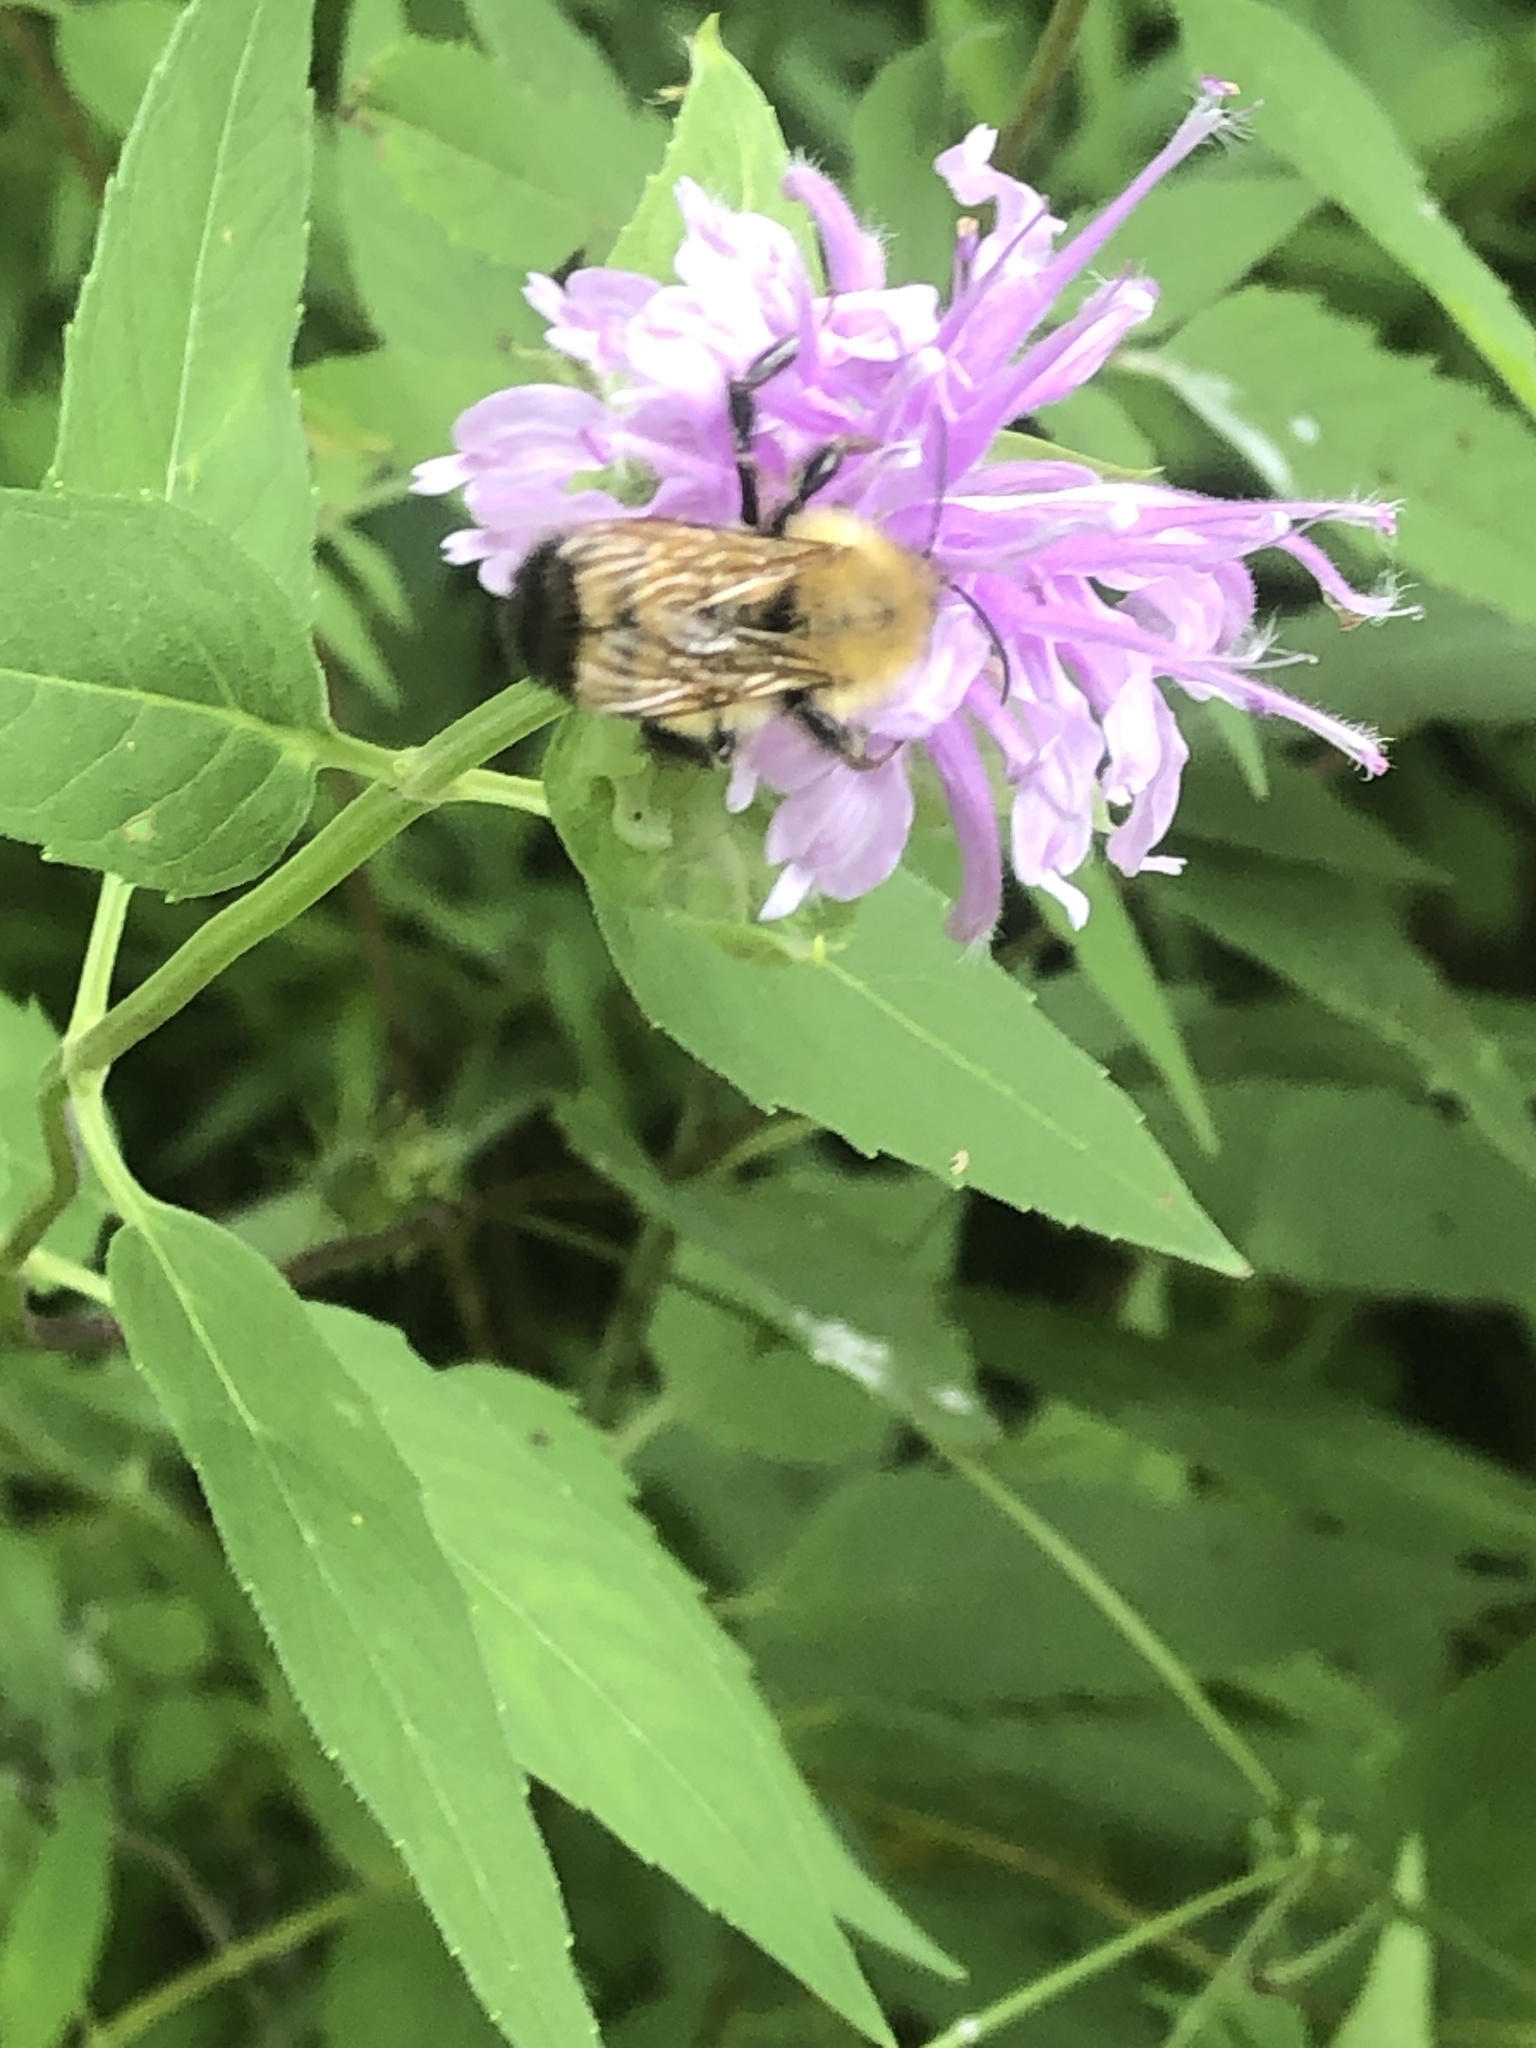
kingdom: Animalia
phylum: Arthropoda
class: Insecta
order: Hymenoptera
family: Apidae
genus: Bombus
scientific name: Bombus perplexus
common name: Confusing bumble bee
